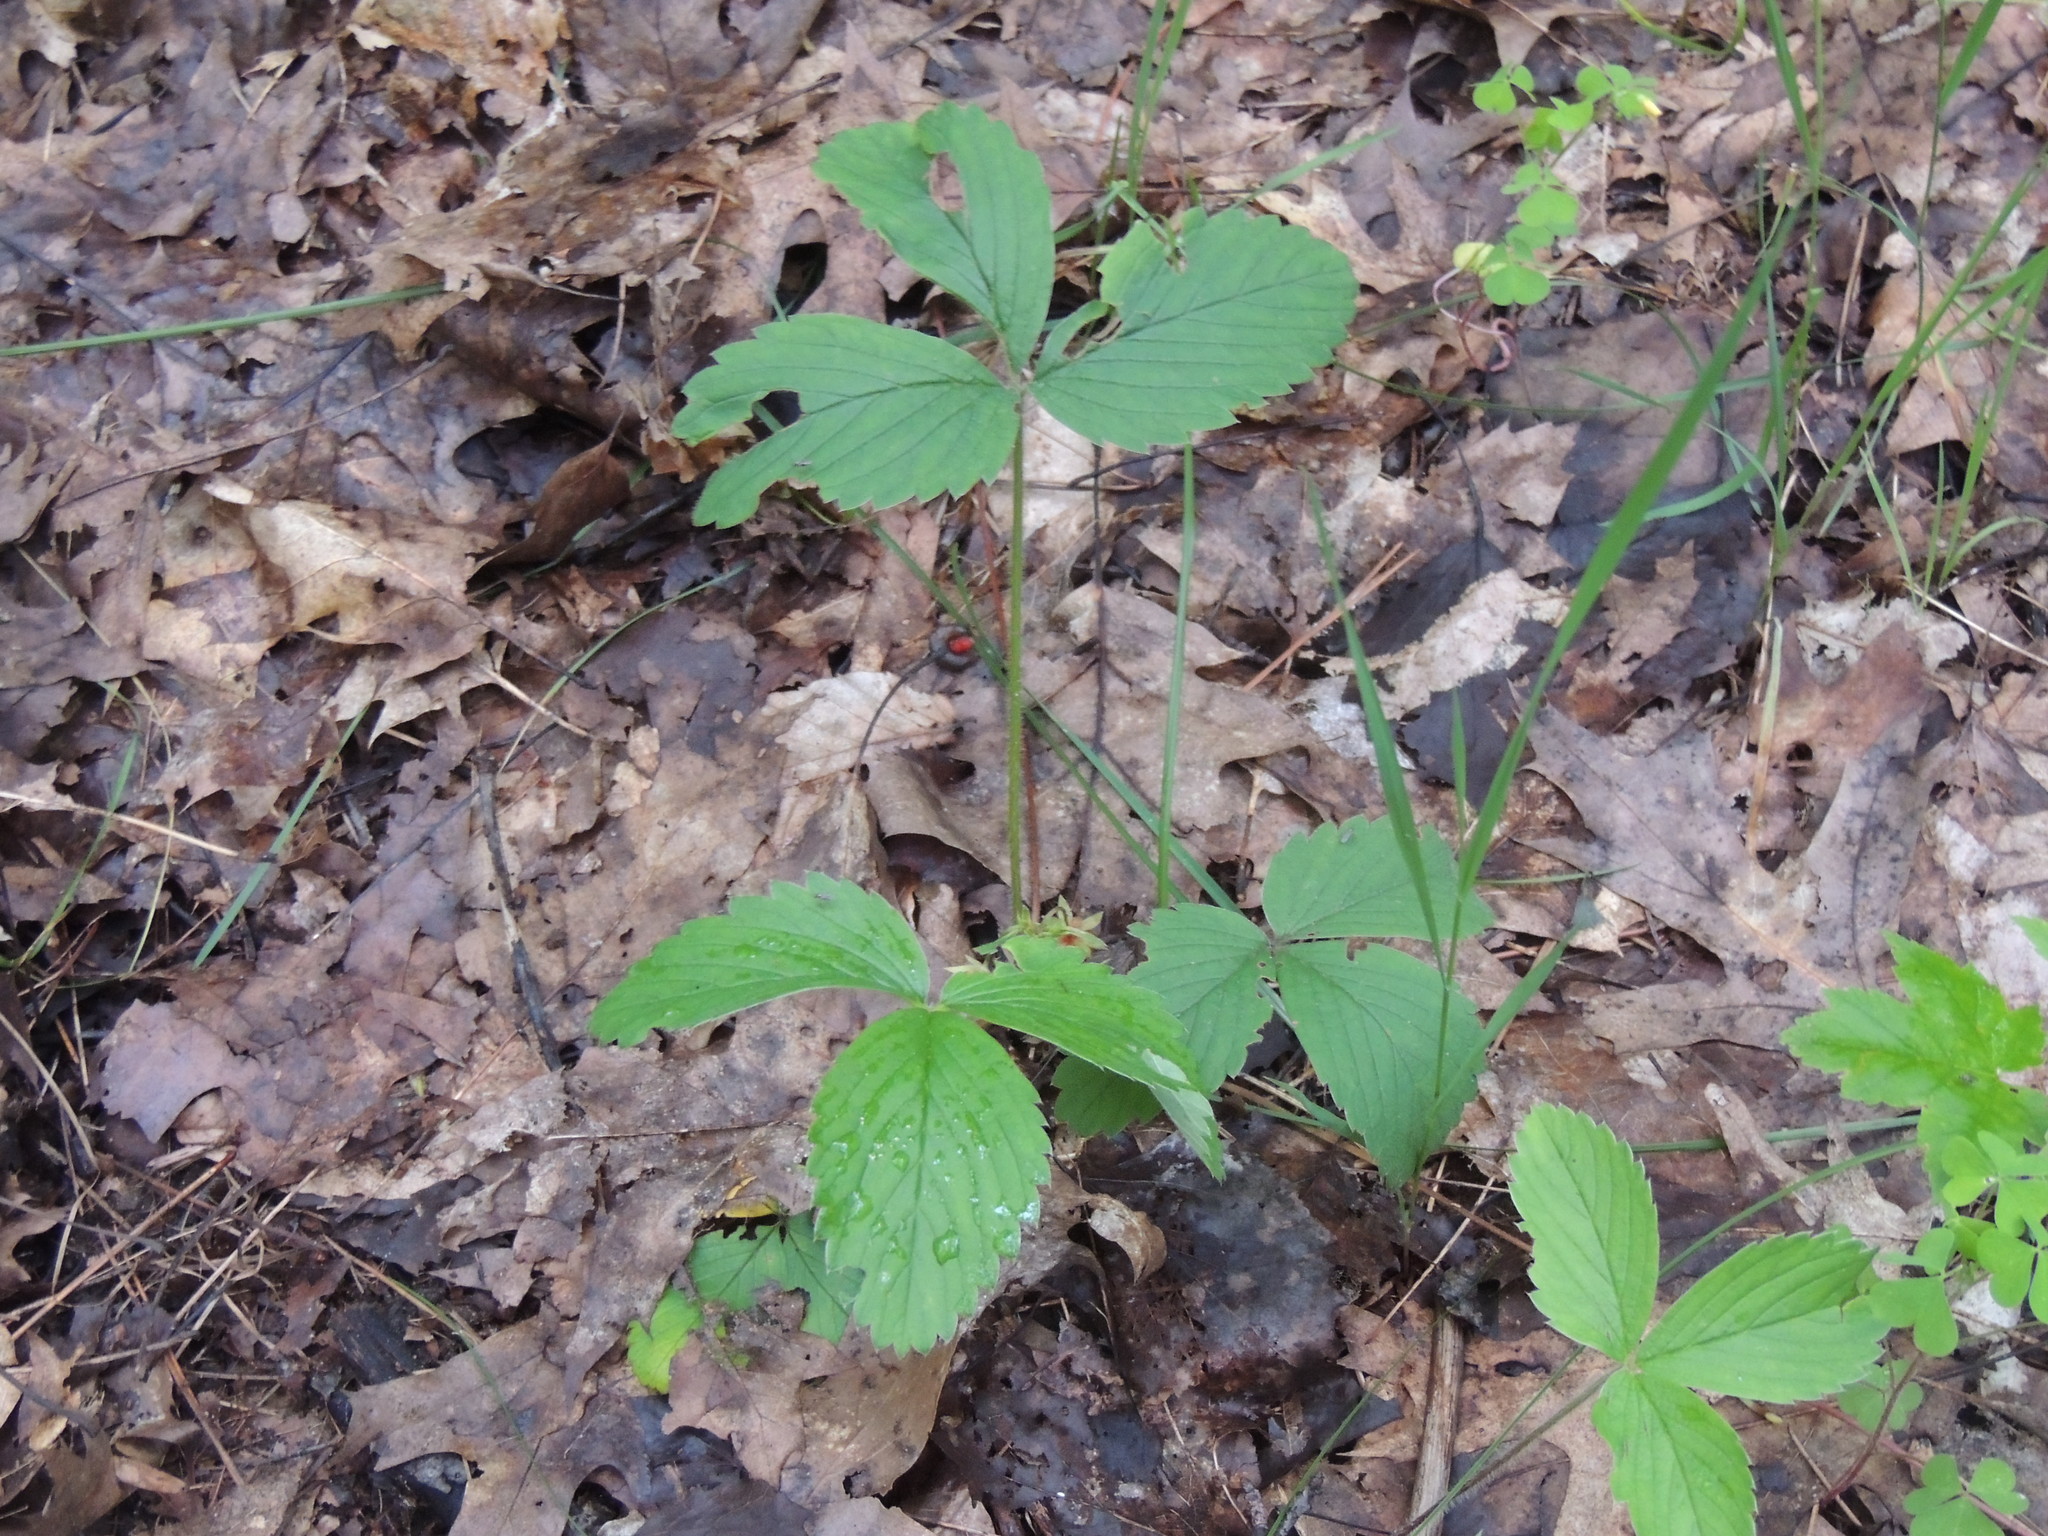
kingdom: Plantae
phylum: Tracheophyta
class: Magnoliopsida
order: Rosales
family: Rosaceae
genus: Fragaria
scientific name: Fragaria virginiana
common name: Thickleaved wild strawberry
